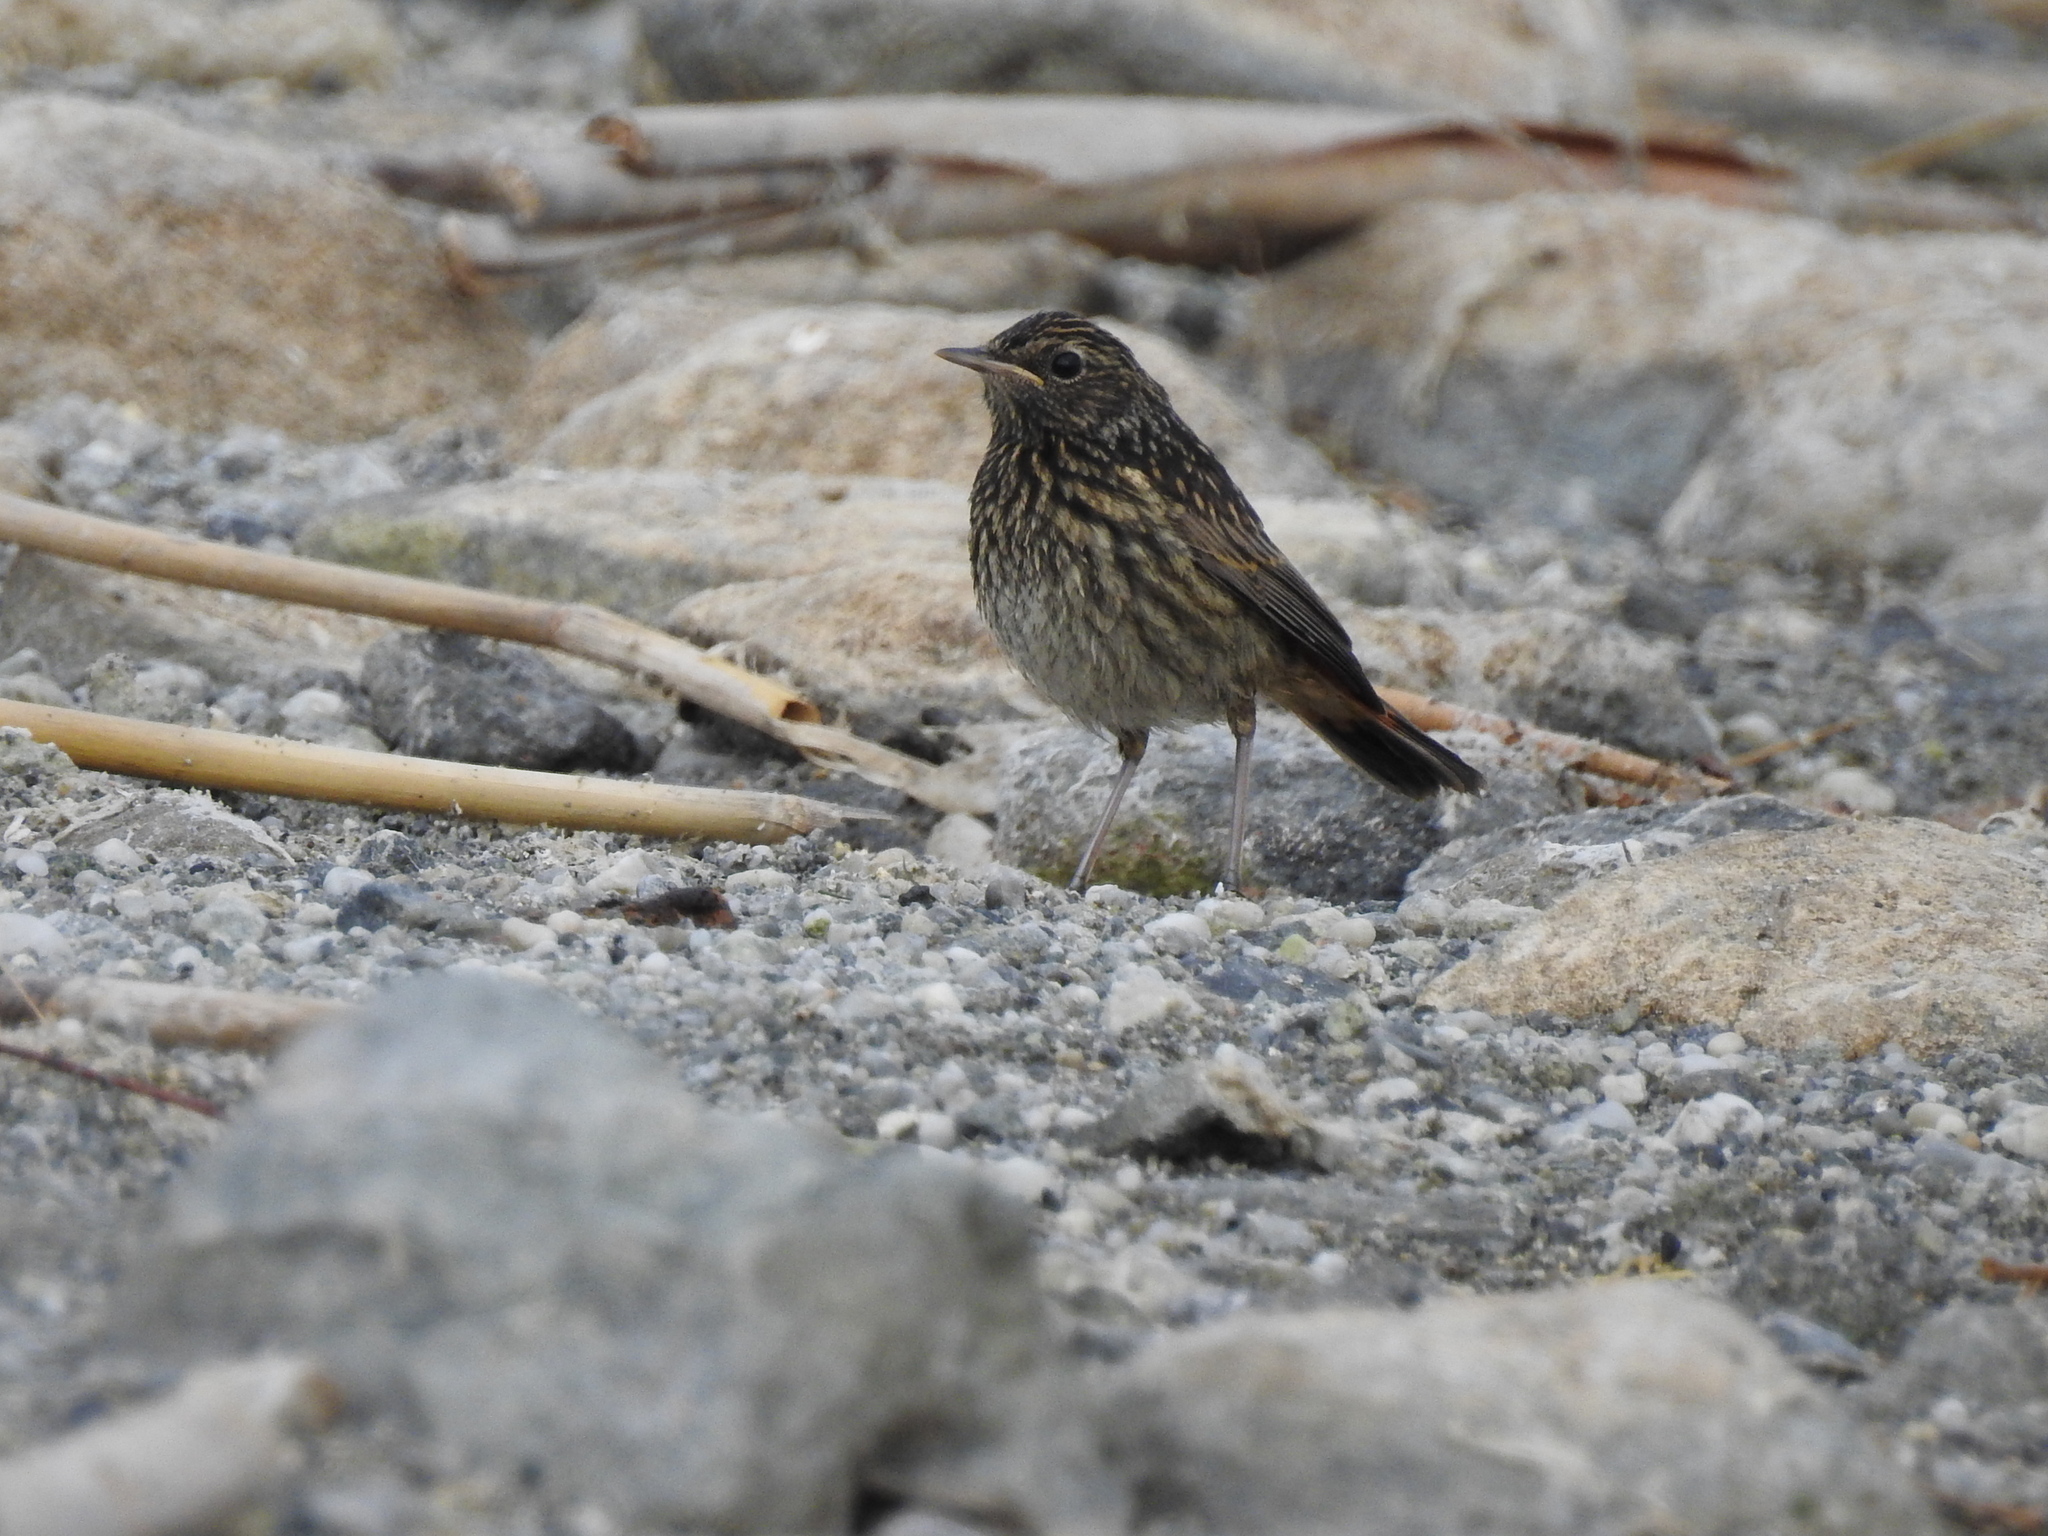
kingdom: Animalia
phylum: Chordata
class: Aves
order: Passeriformes
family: Muscicapidae
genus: Luscinia
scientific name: Luscinia svecica
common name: Bluethroat
